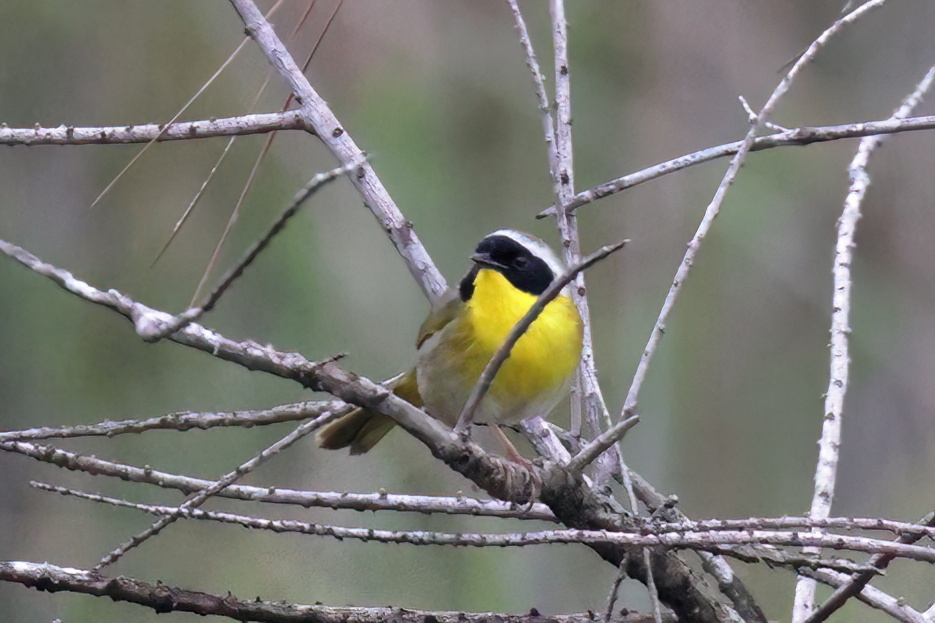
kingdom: Animalia
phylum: Chordata
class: Aves
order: Passeriformes
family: Parulidae
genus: Geothlypis
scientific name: Geothlypis trichas
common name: Common yellowthroat
